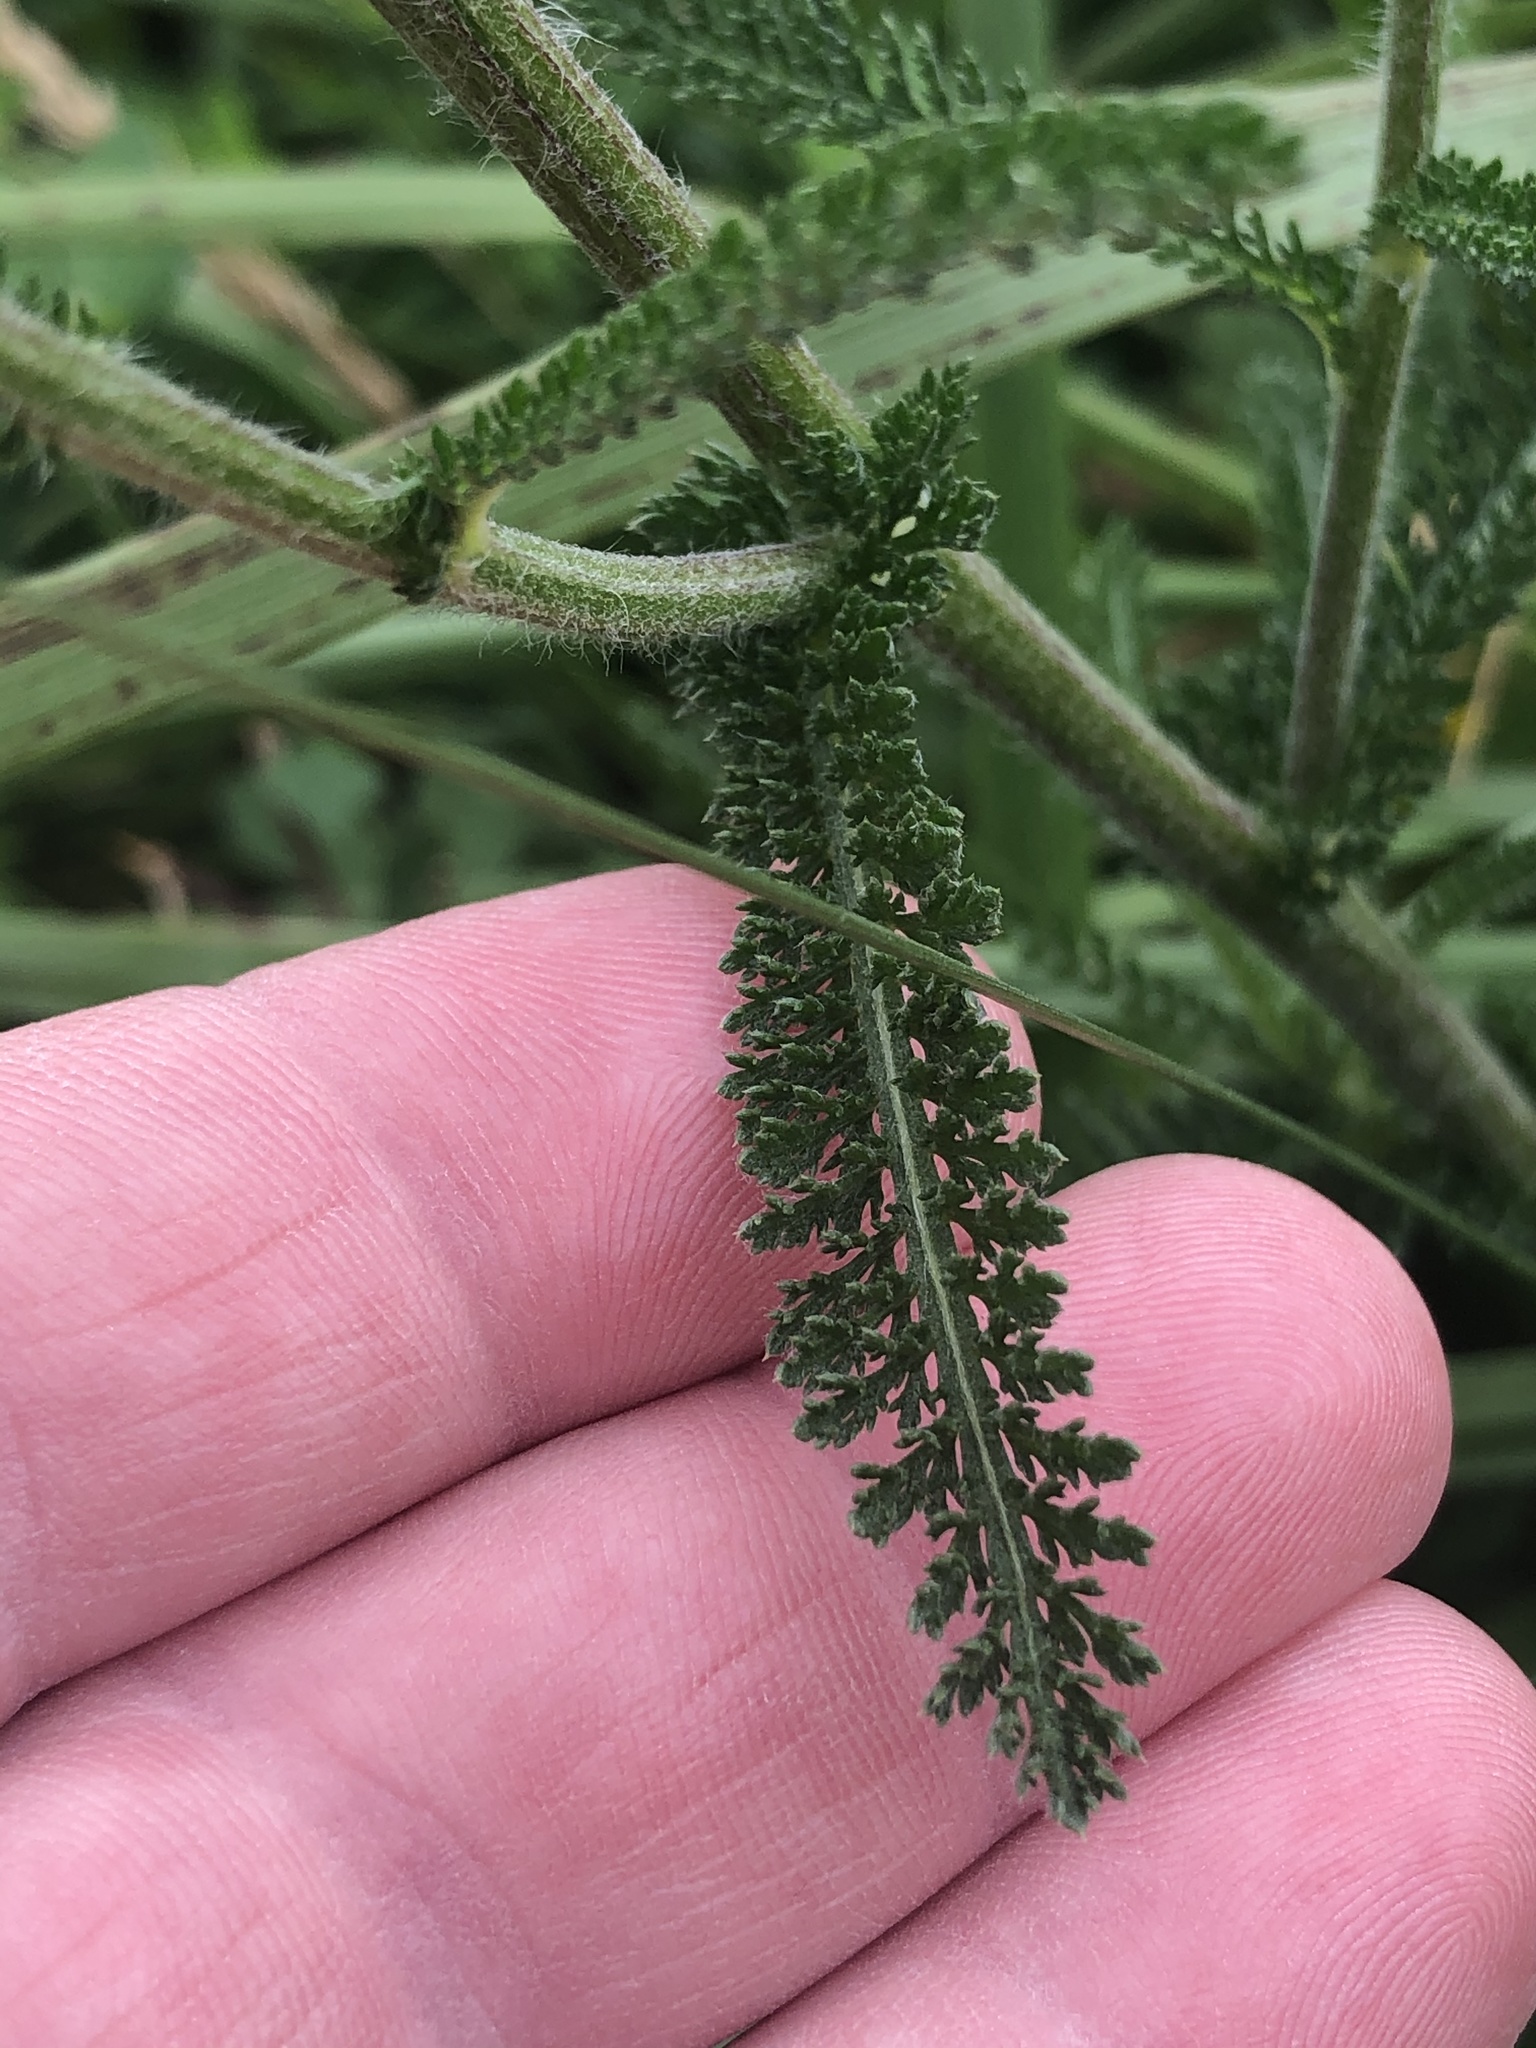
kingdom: Plantae
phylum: Tracheophyta
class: Magnoliopsida
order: Asterales
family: Asteraceae
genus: Achillea
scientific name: Achillea millefolium
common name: Yarrow
